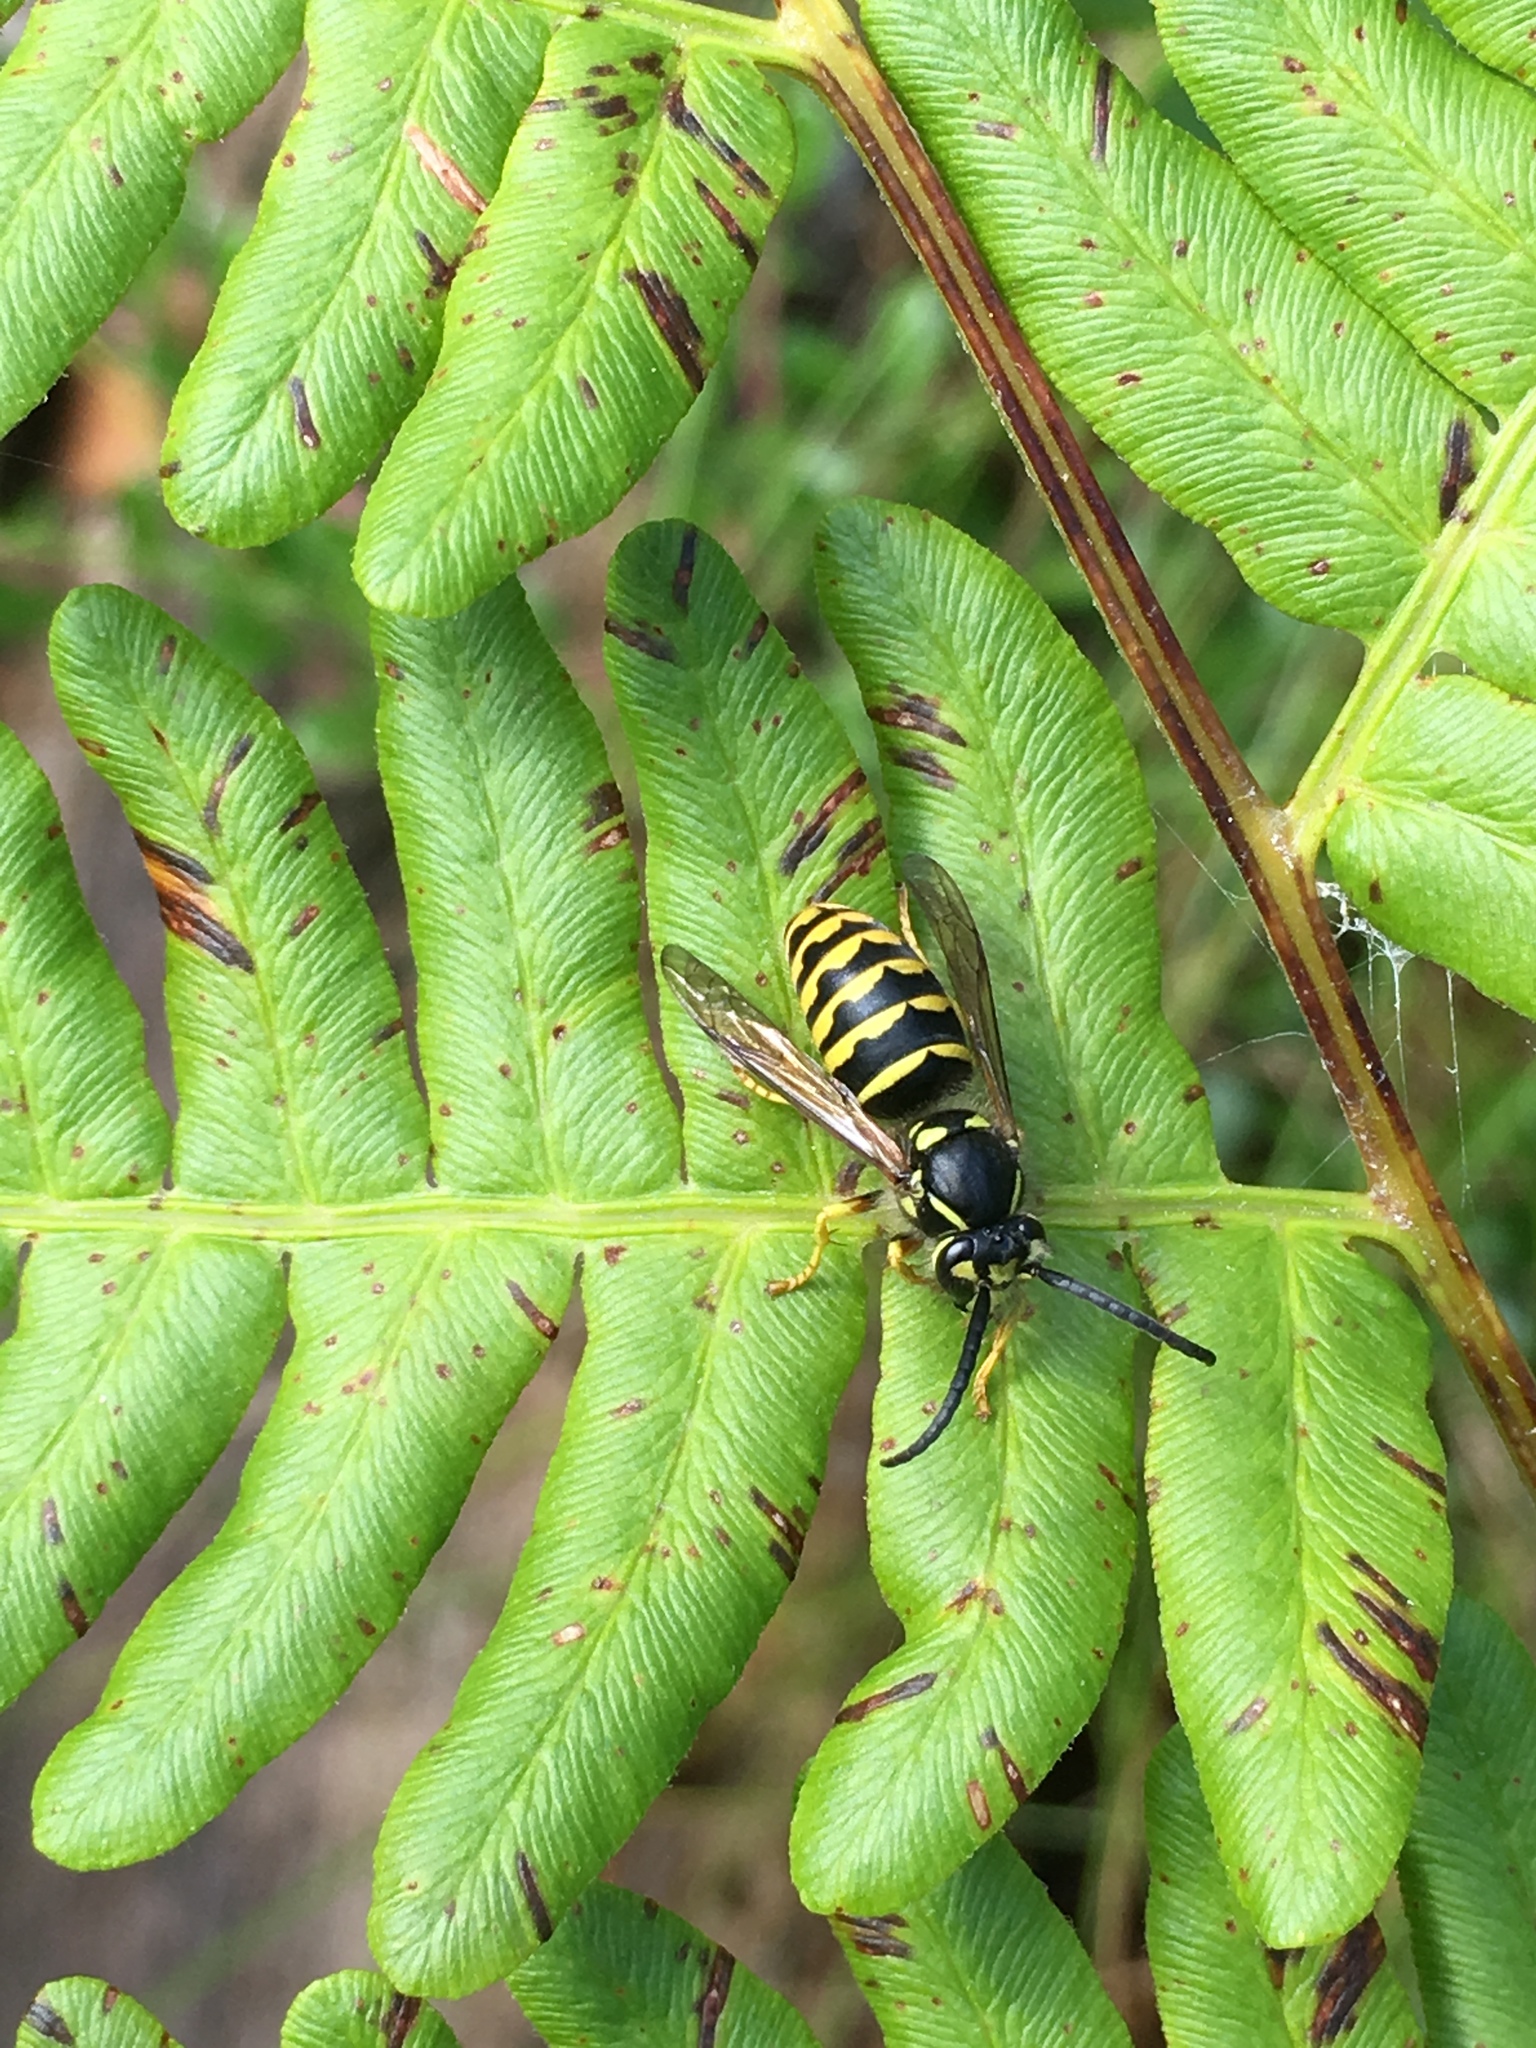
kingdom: Animalia
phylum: Arthropoda
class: Insecta
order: Hymenoptera
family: Vespidae
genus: Dolichovespula
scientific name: Dolichovespula arenaria
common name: Aerial yellowjacket
